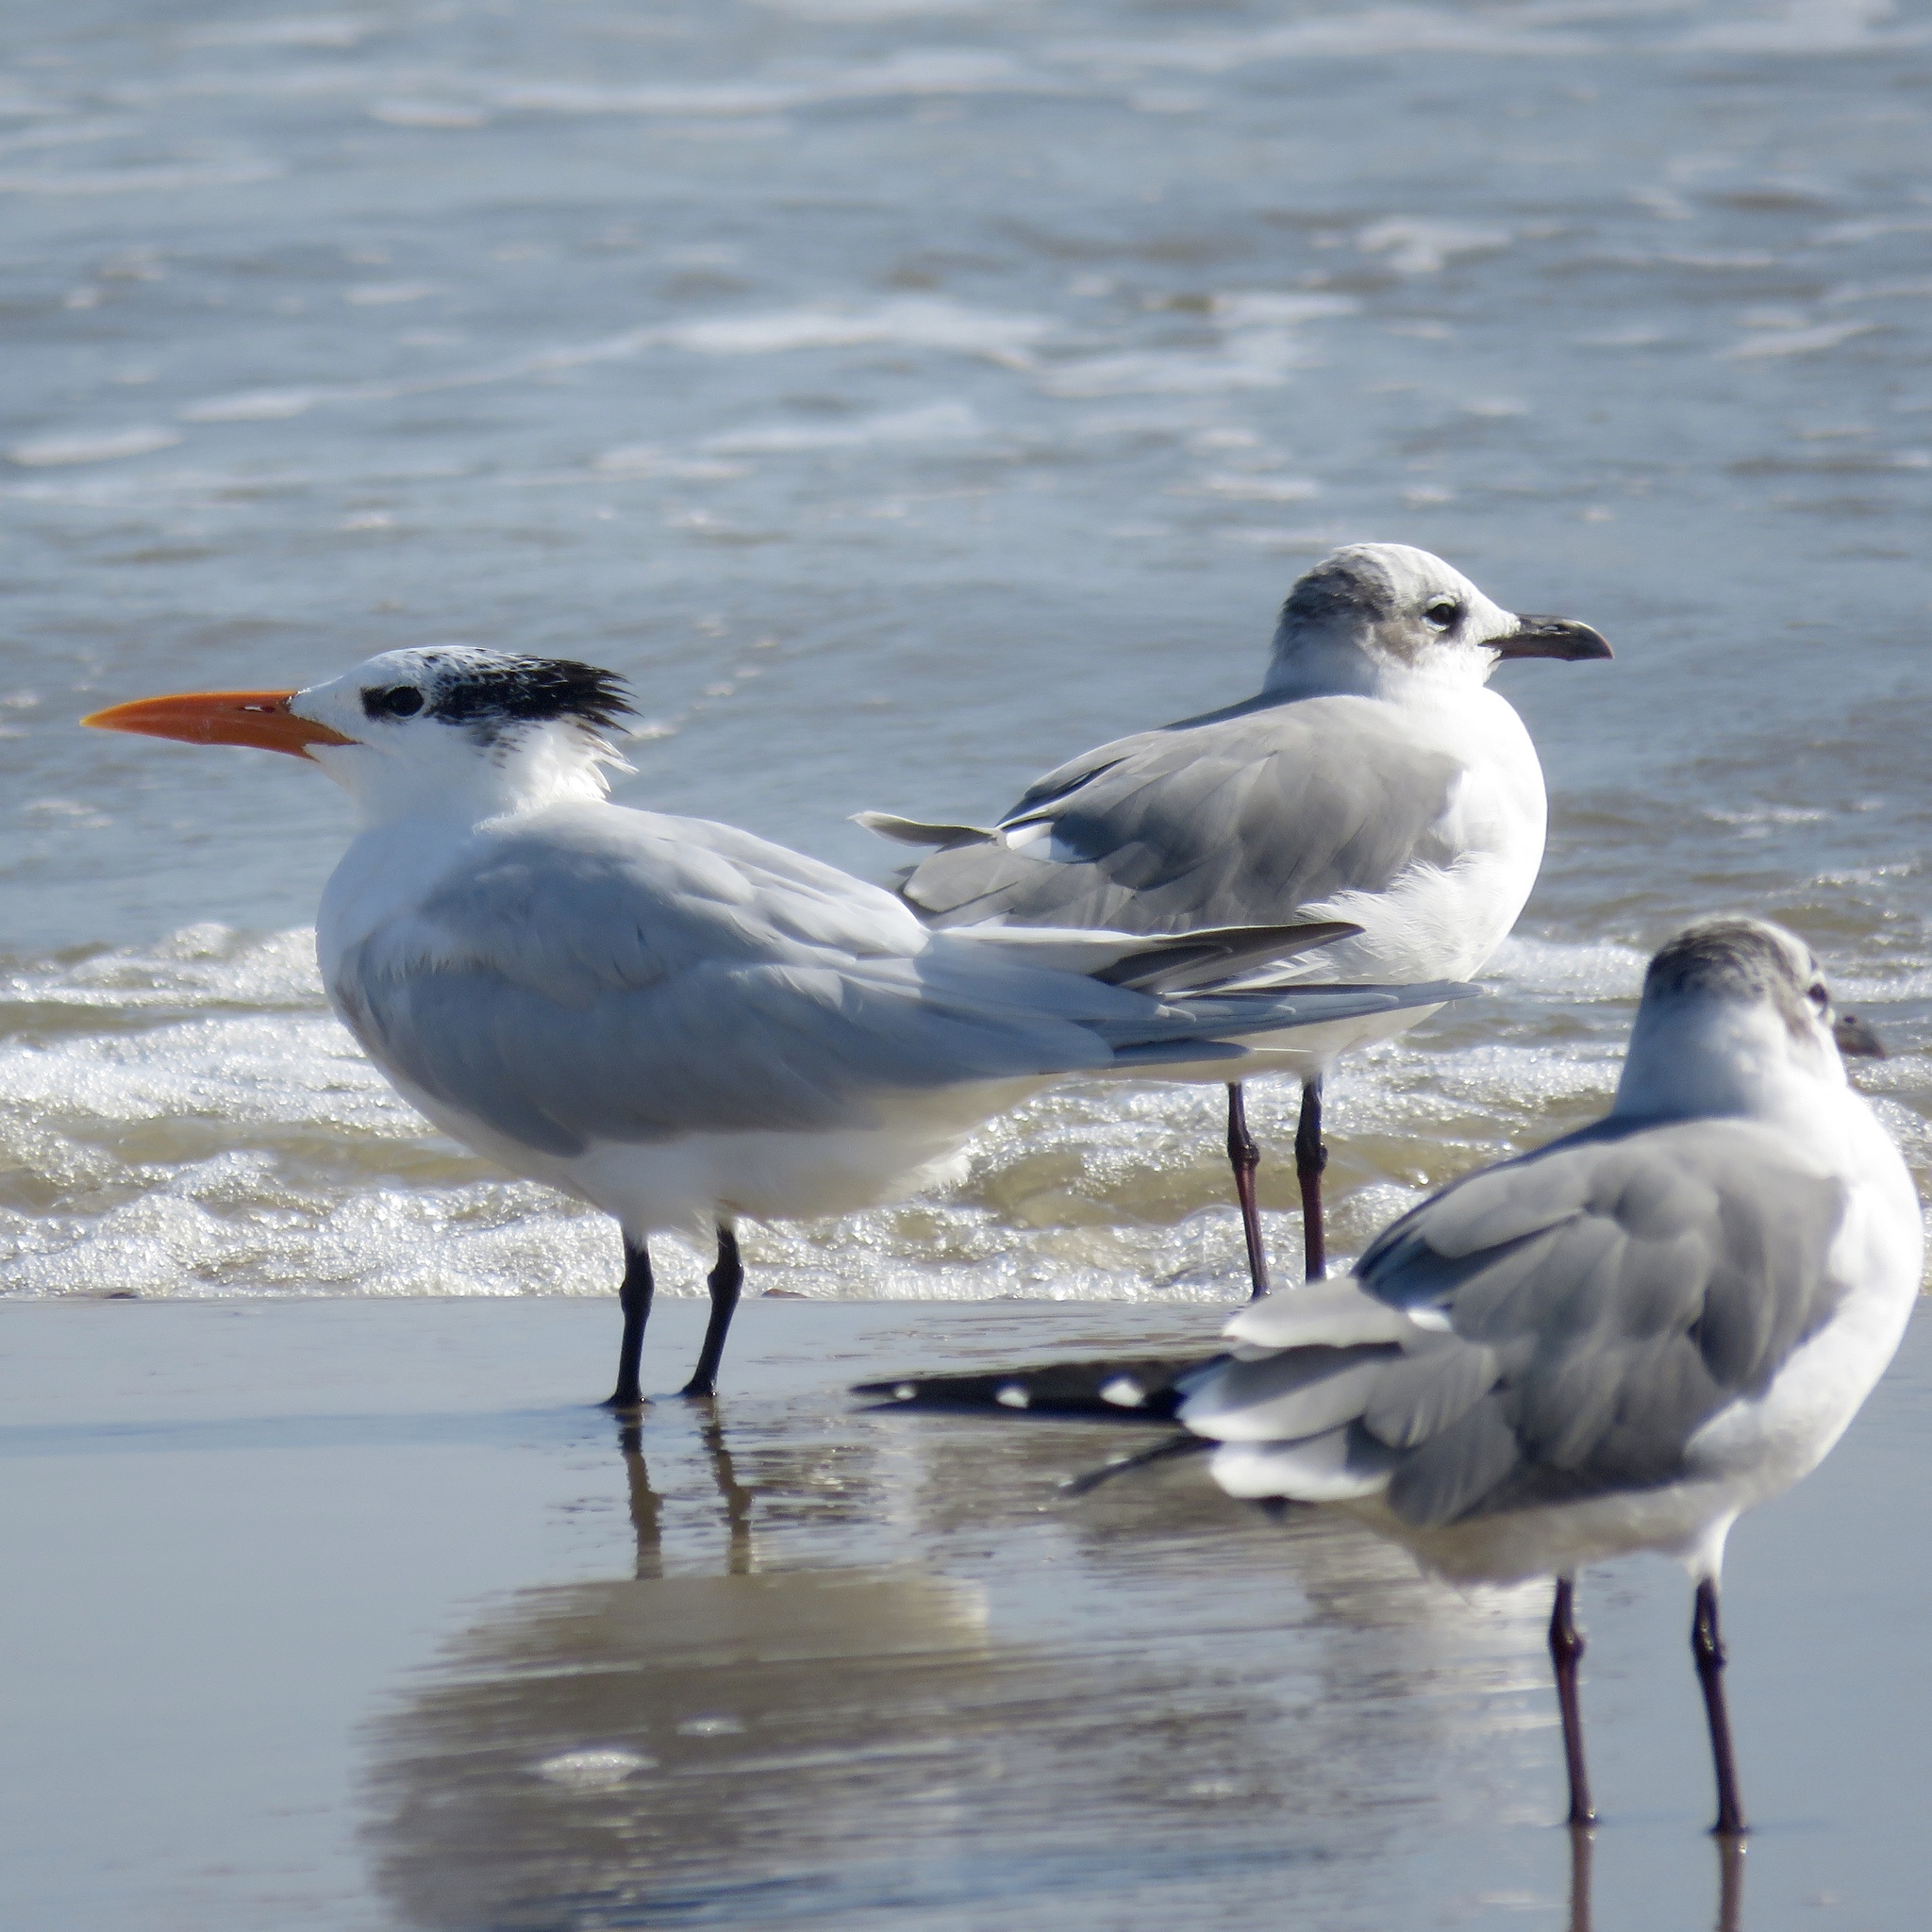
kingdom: Animalia
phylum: Chordata
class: Aves
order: Charadriiformes
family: Laridae
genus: Thalasseus
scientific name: Thalasseus maximus
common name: Royal tern
